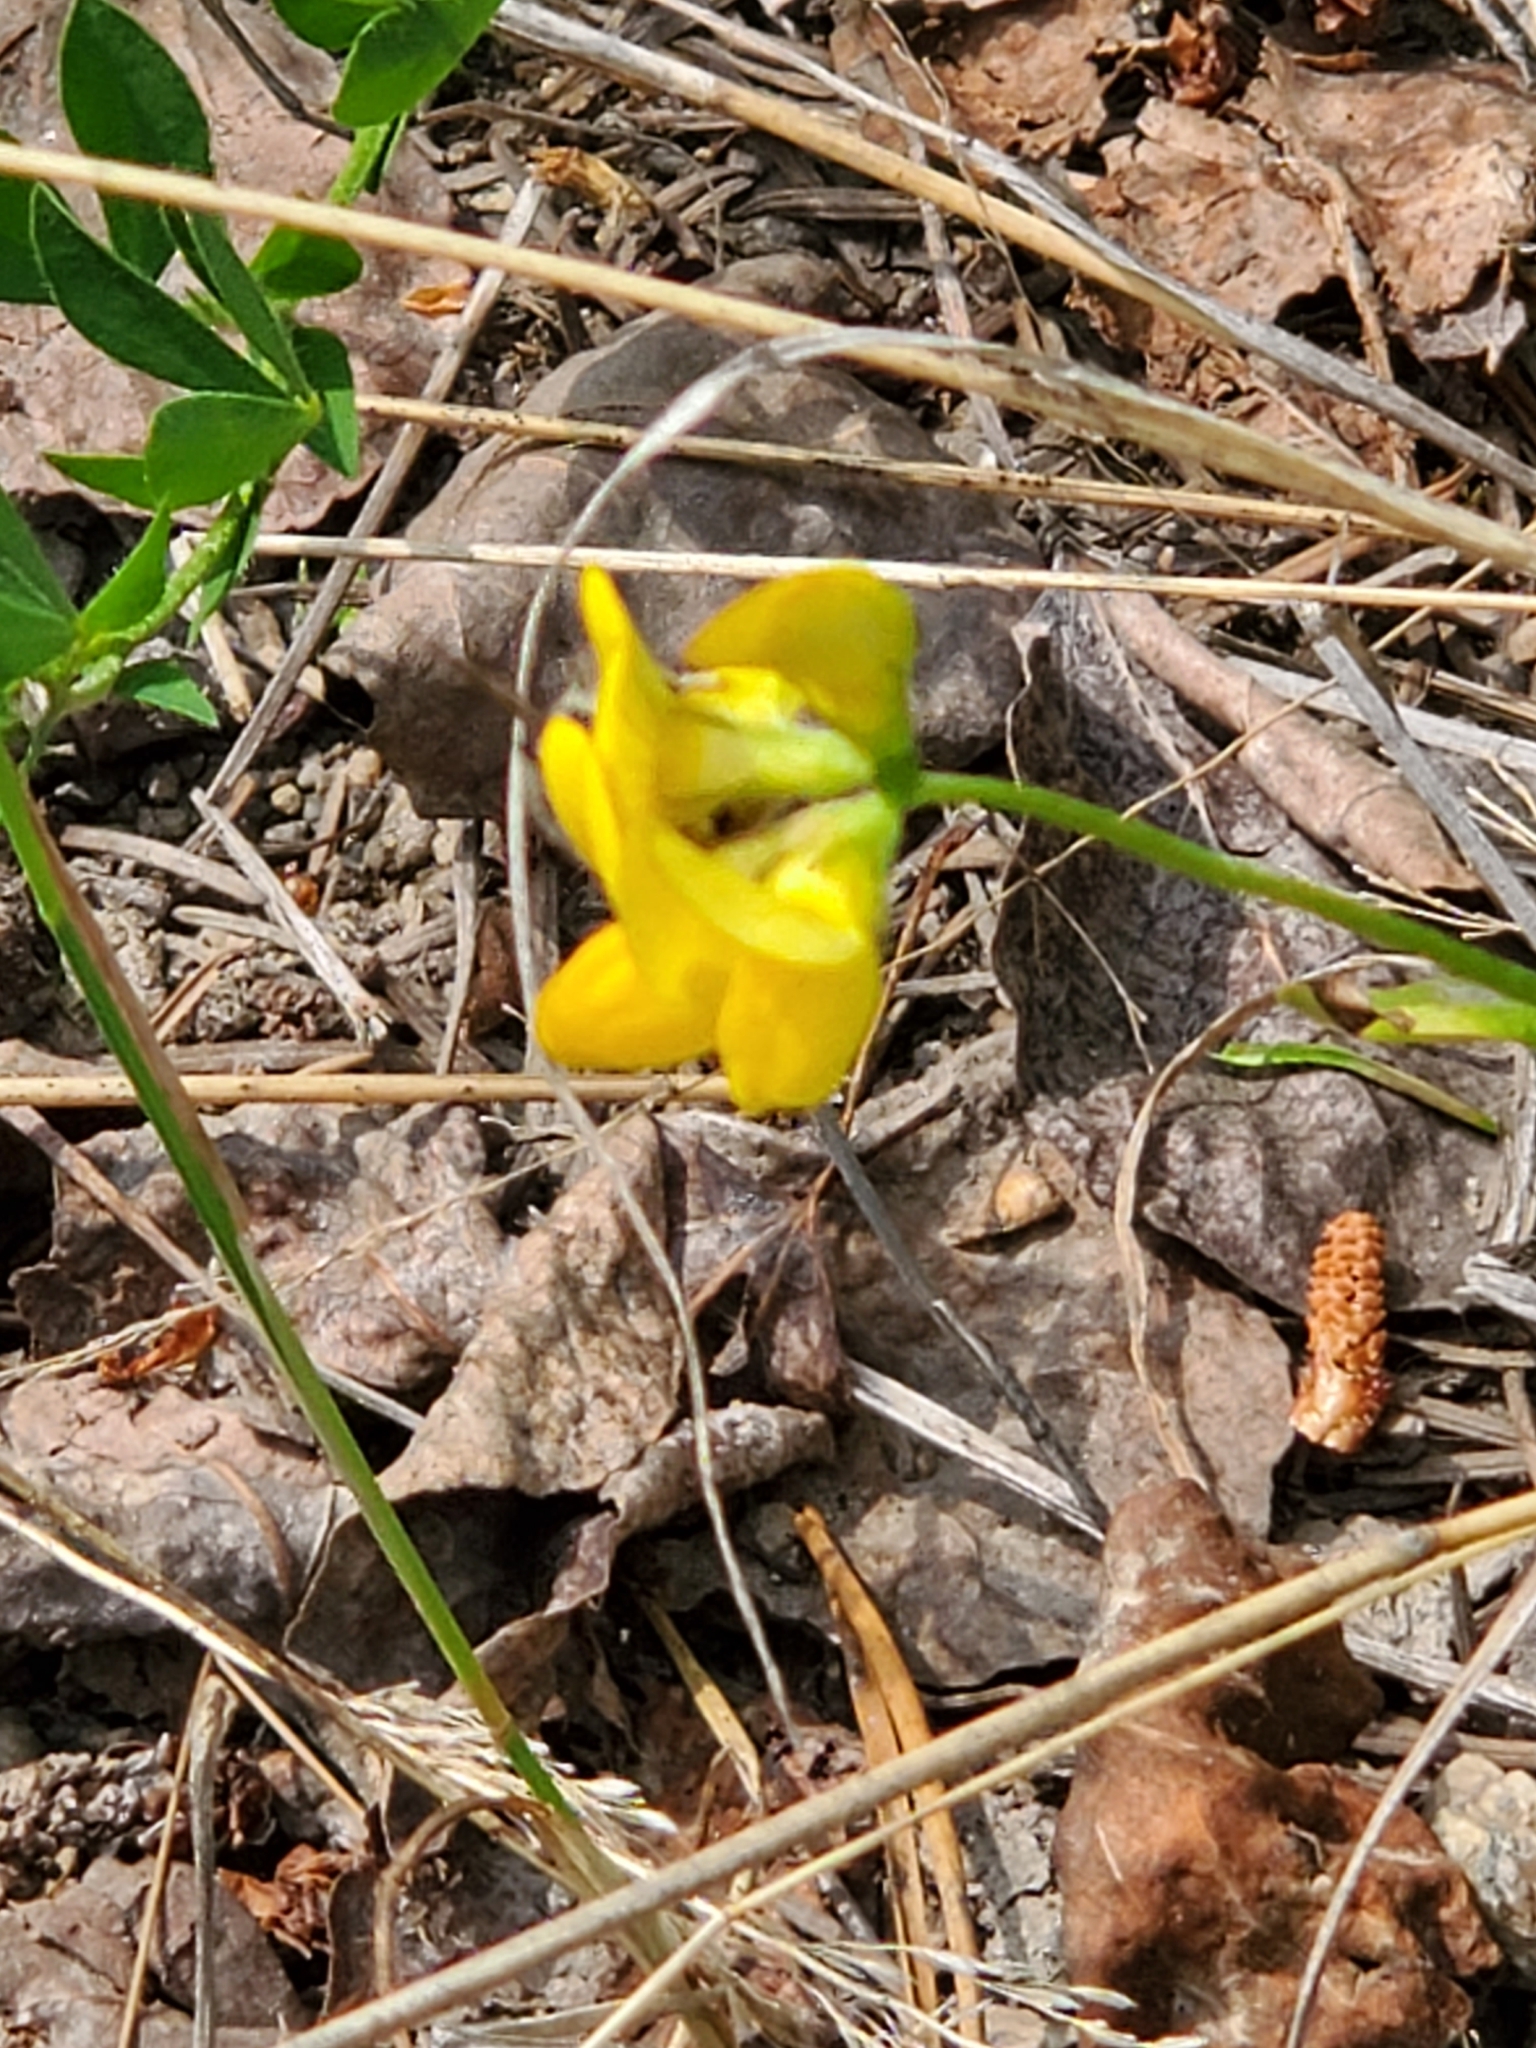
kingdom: Plantae
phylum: Tracheophyta
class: Magnoliopsida
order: Fabales
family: Fabaceae
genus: Lotus
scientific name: Lotus corniculatus
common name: Common bird's-foot-trefoil
